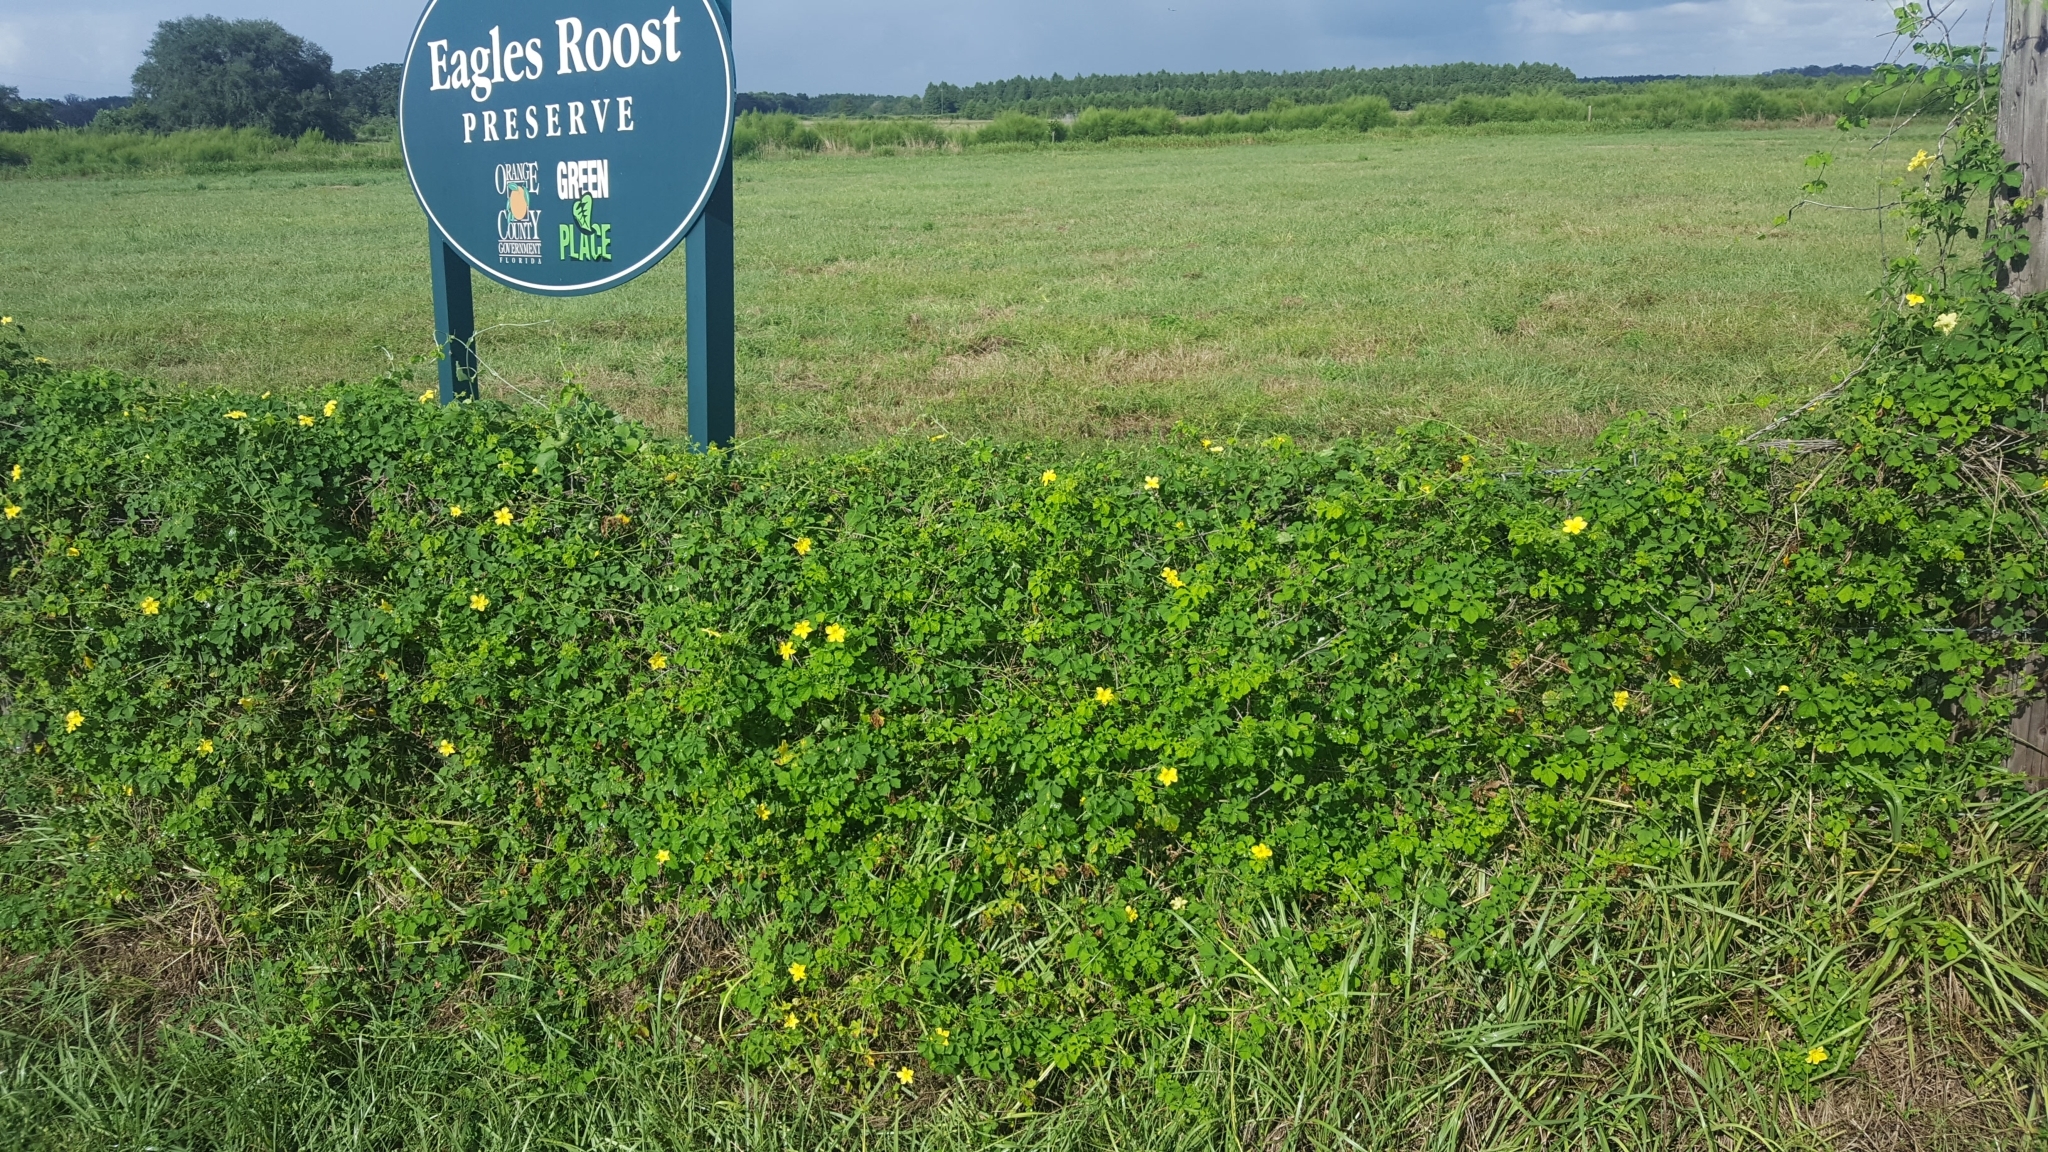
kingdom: Plantae
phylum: Tracheophyta
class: Magnoliopsida
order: Cucurbitales
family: Cucurbitaceae
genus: Momordica
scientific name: Momordica charantia
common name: Balsampear
